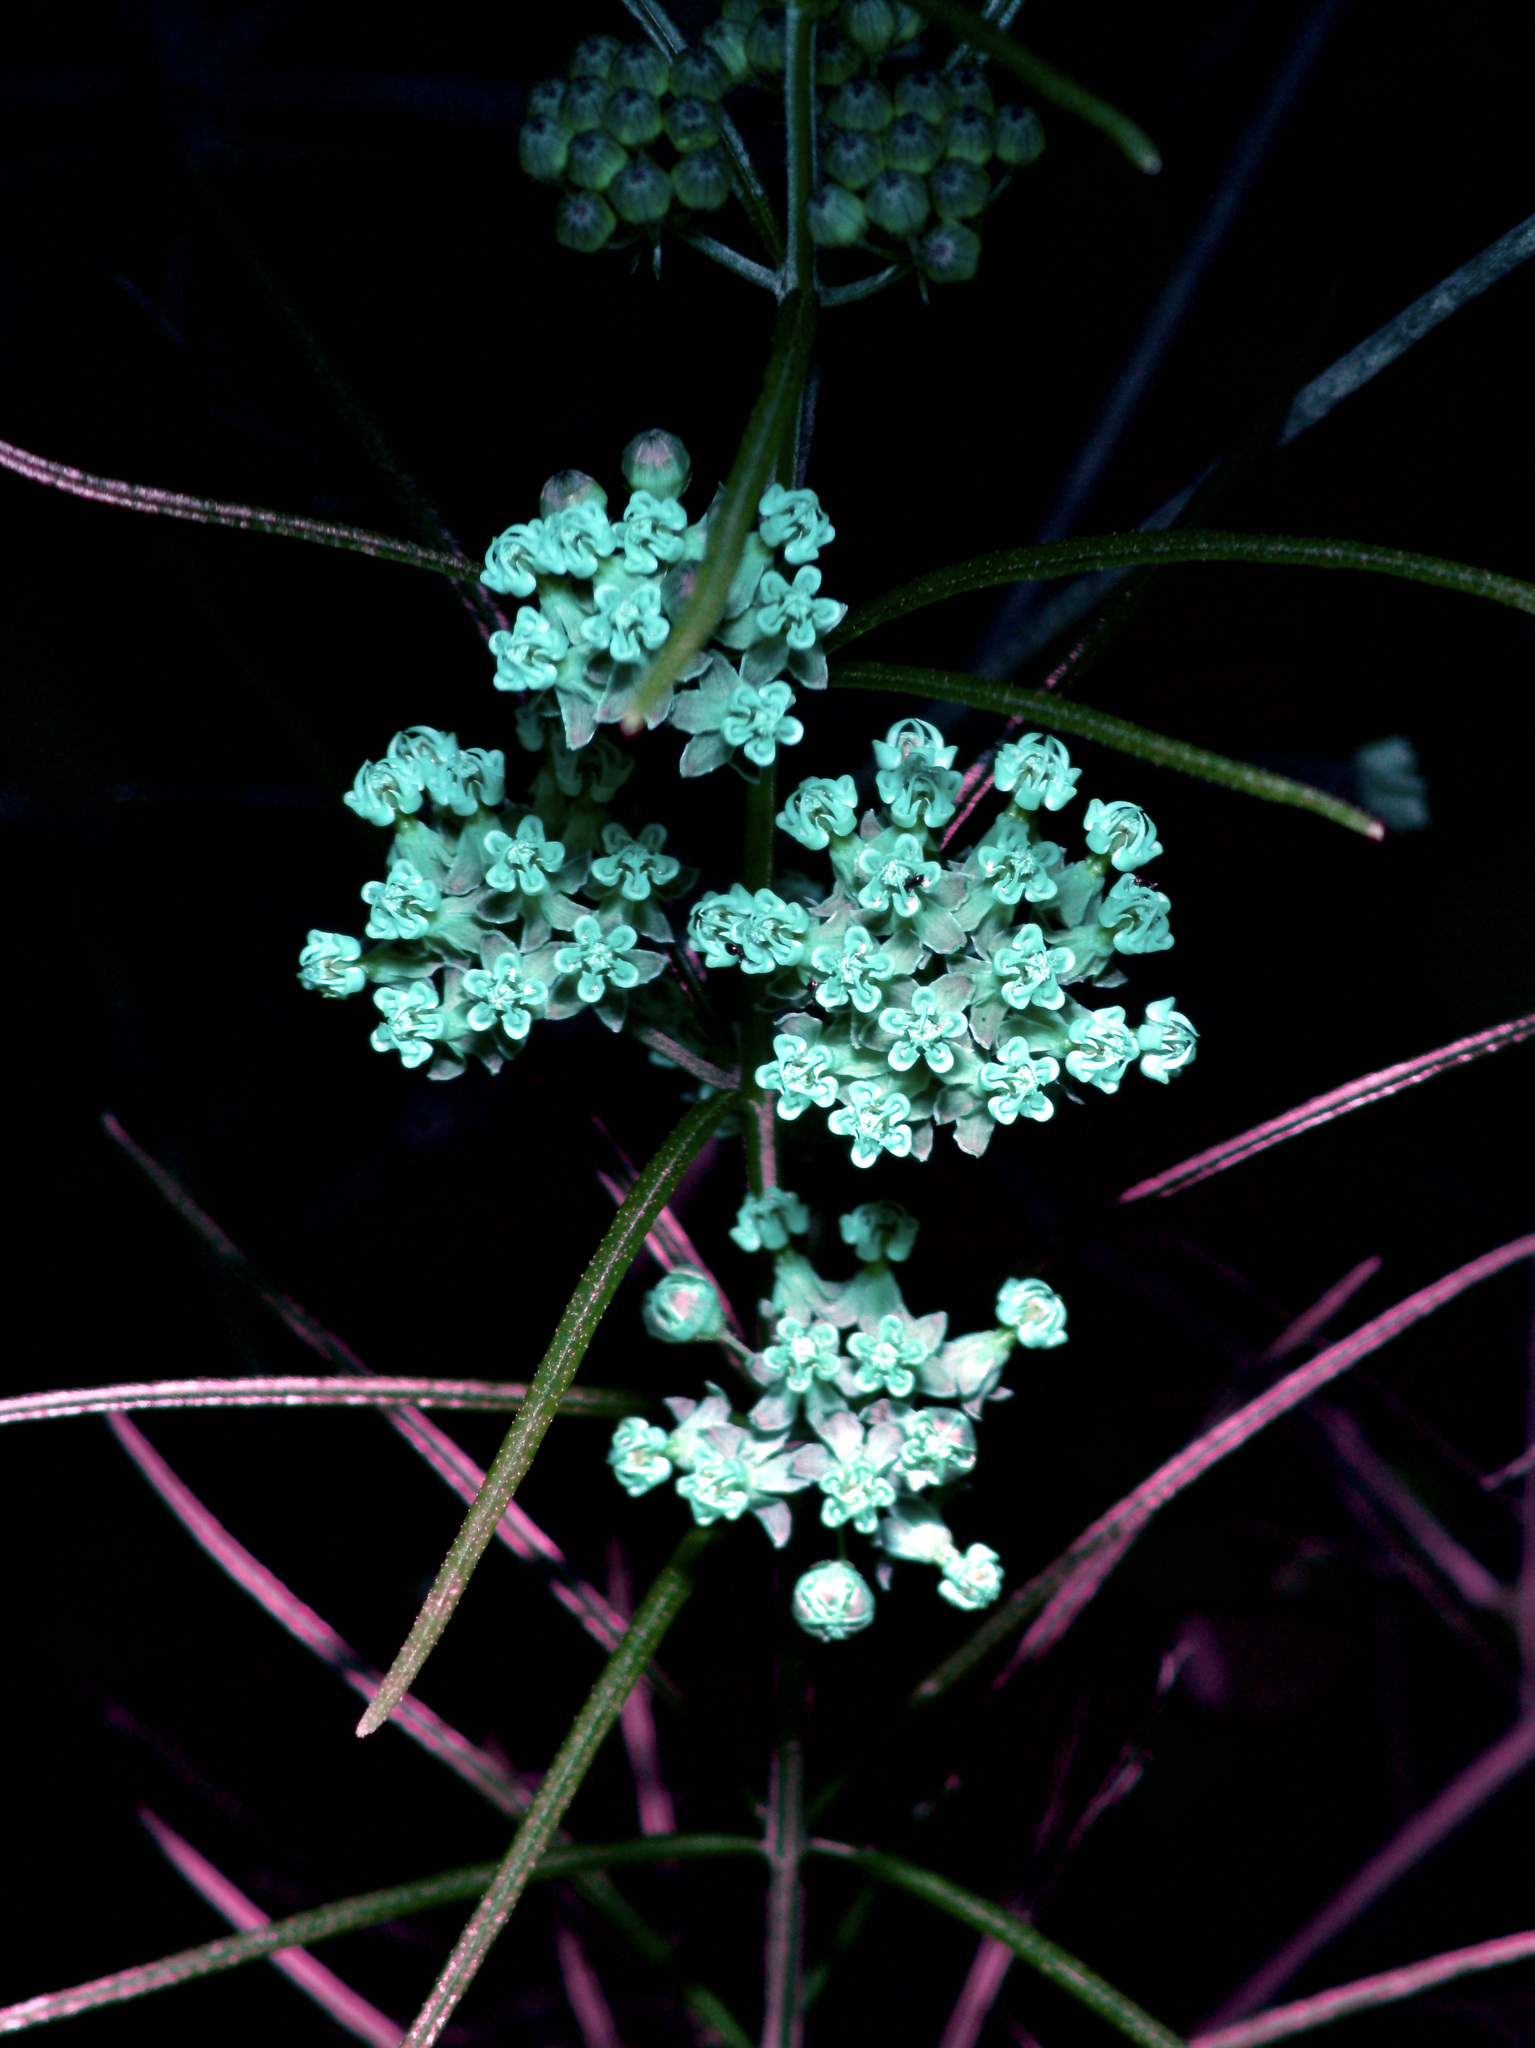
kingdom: Plantae
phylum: Tracheophyta
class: Magnoliopsida
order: Gentianales
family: Apocynaceae
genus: Asclepias
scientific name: Asclepias verticillata
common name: Eastern whorled milkweed
